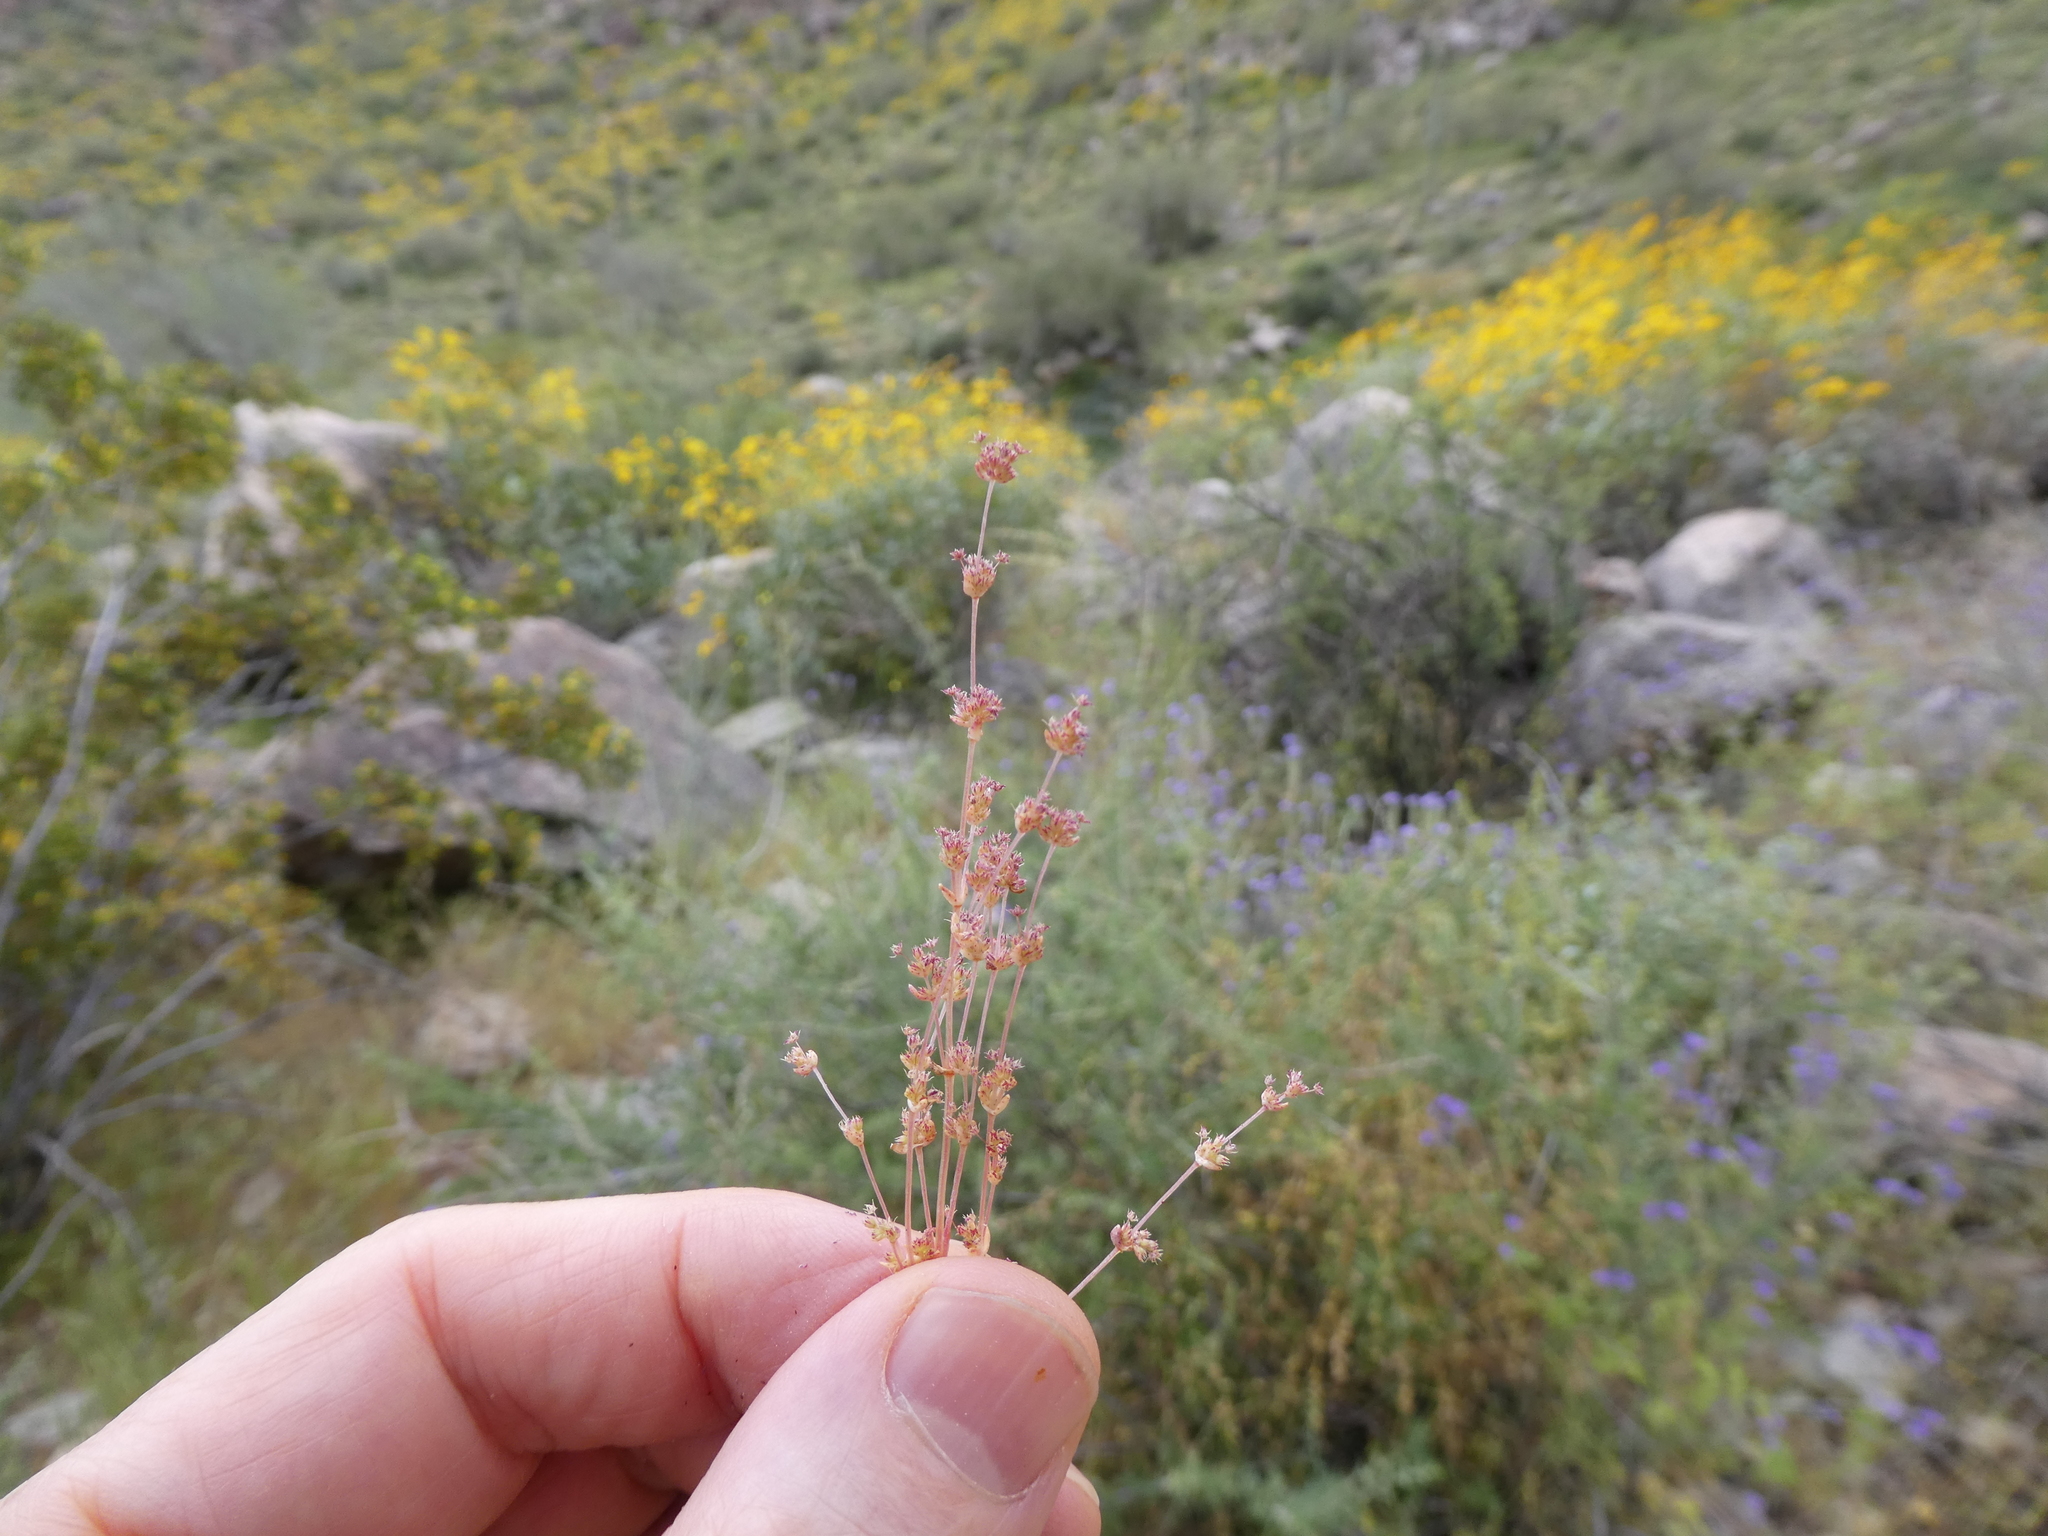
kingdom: Plantae
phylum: Tracheophyta
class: Magnoliopsida
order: Saxifragales
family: Crassulaceae
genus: Crassula
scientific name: Crassula connata
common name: Erect pygmyweed
